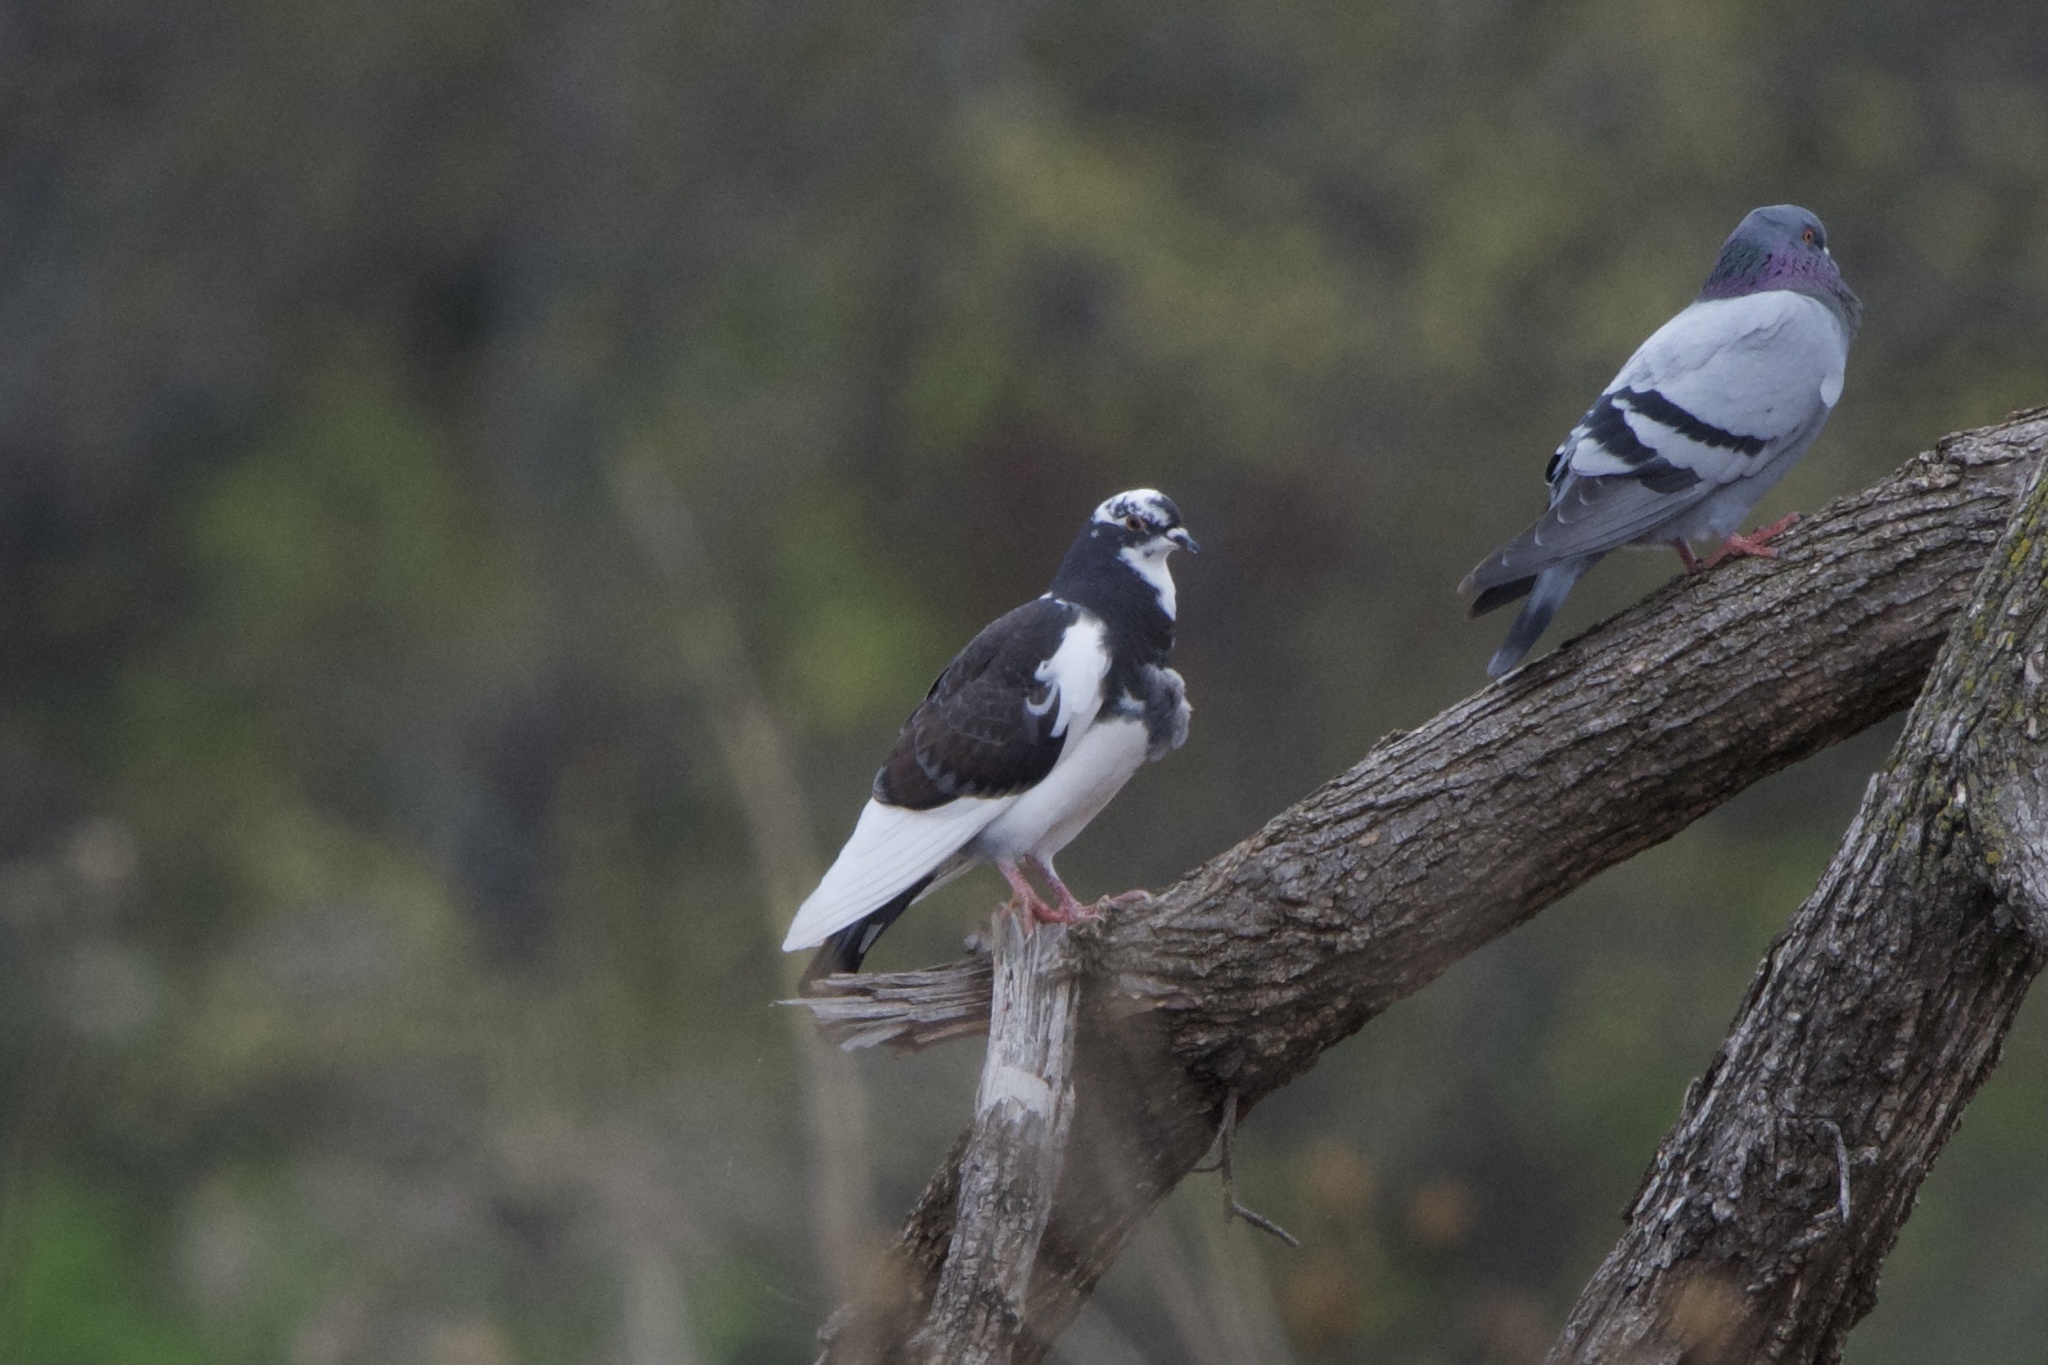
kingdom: Animalia
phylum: Chordata
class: Aves
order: Columbiformes
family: Columbidae
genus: Columba
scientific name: Columba livia
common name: Rock pigeon
